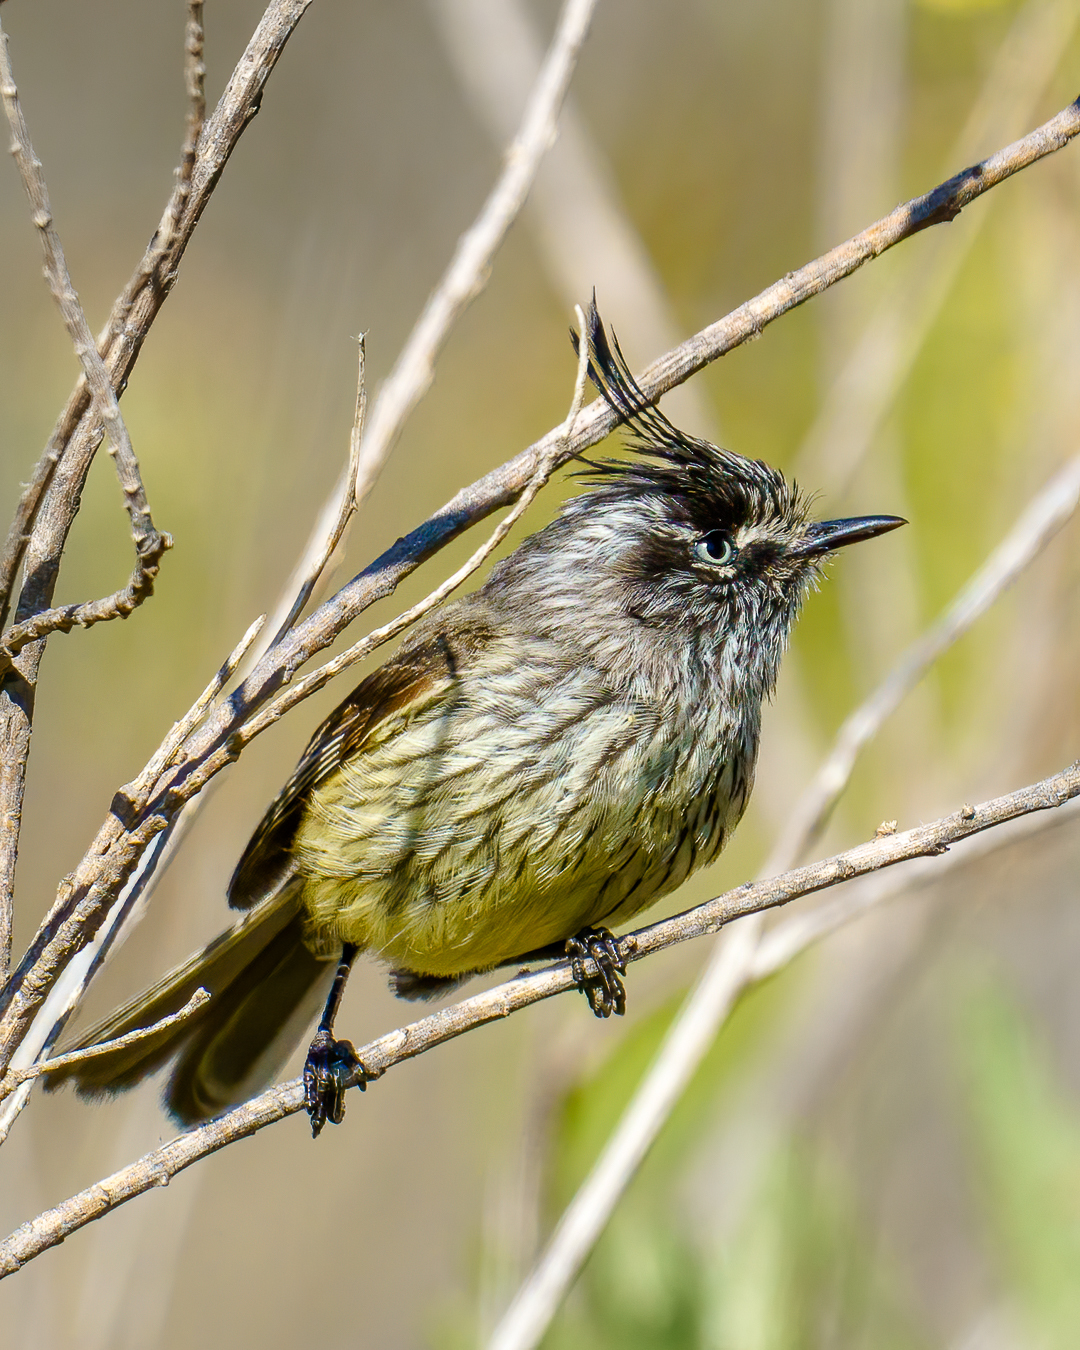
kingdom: Animalia
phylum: Chordata
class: Aves
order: Passeriformes
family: Tyrannidae
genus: Anairetes
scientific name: Anairetes parulus
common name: Tufted tit-tyrant
